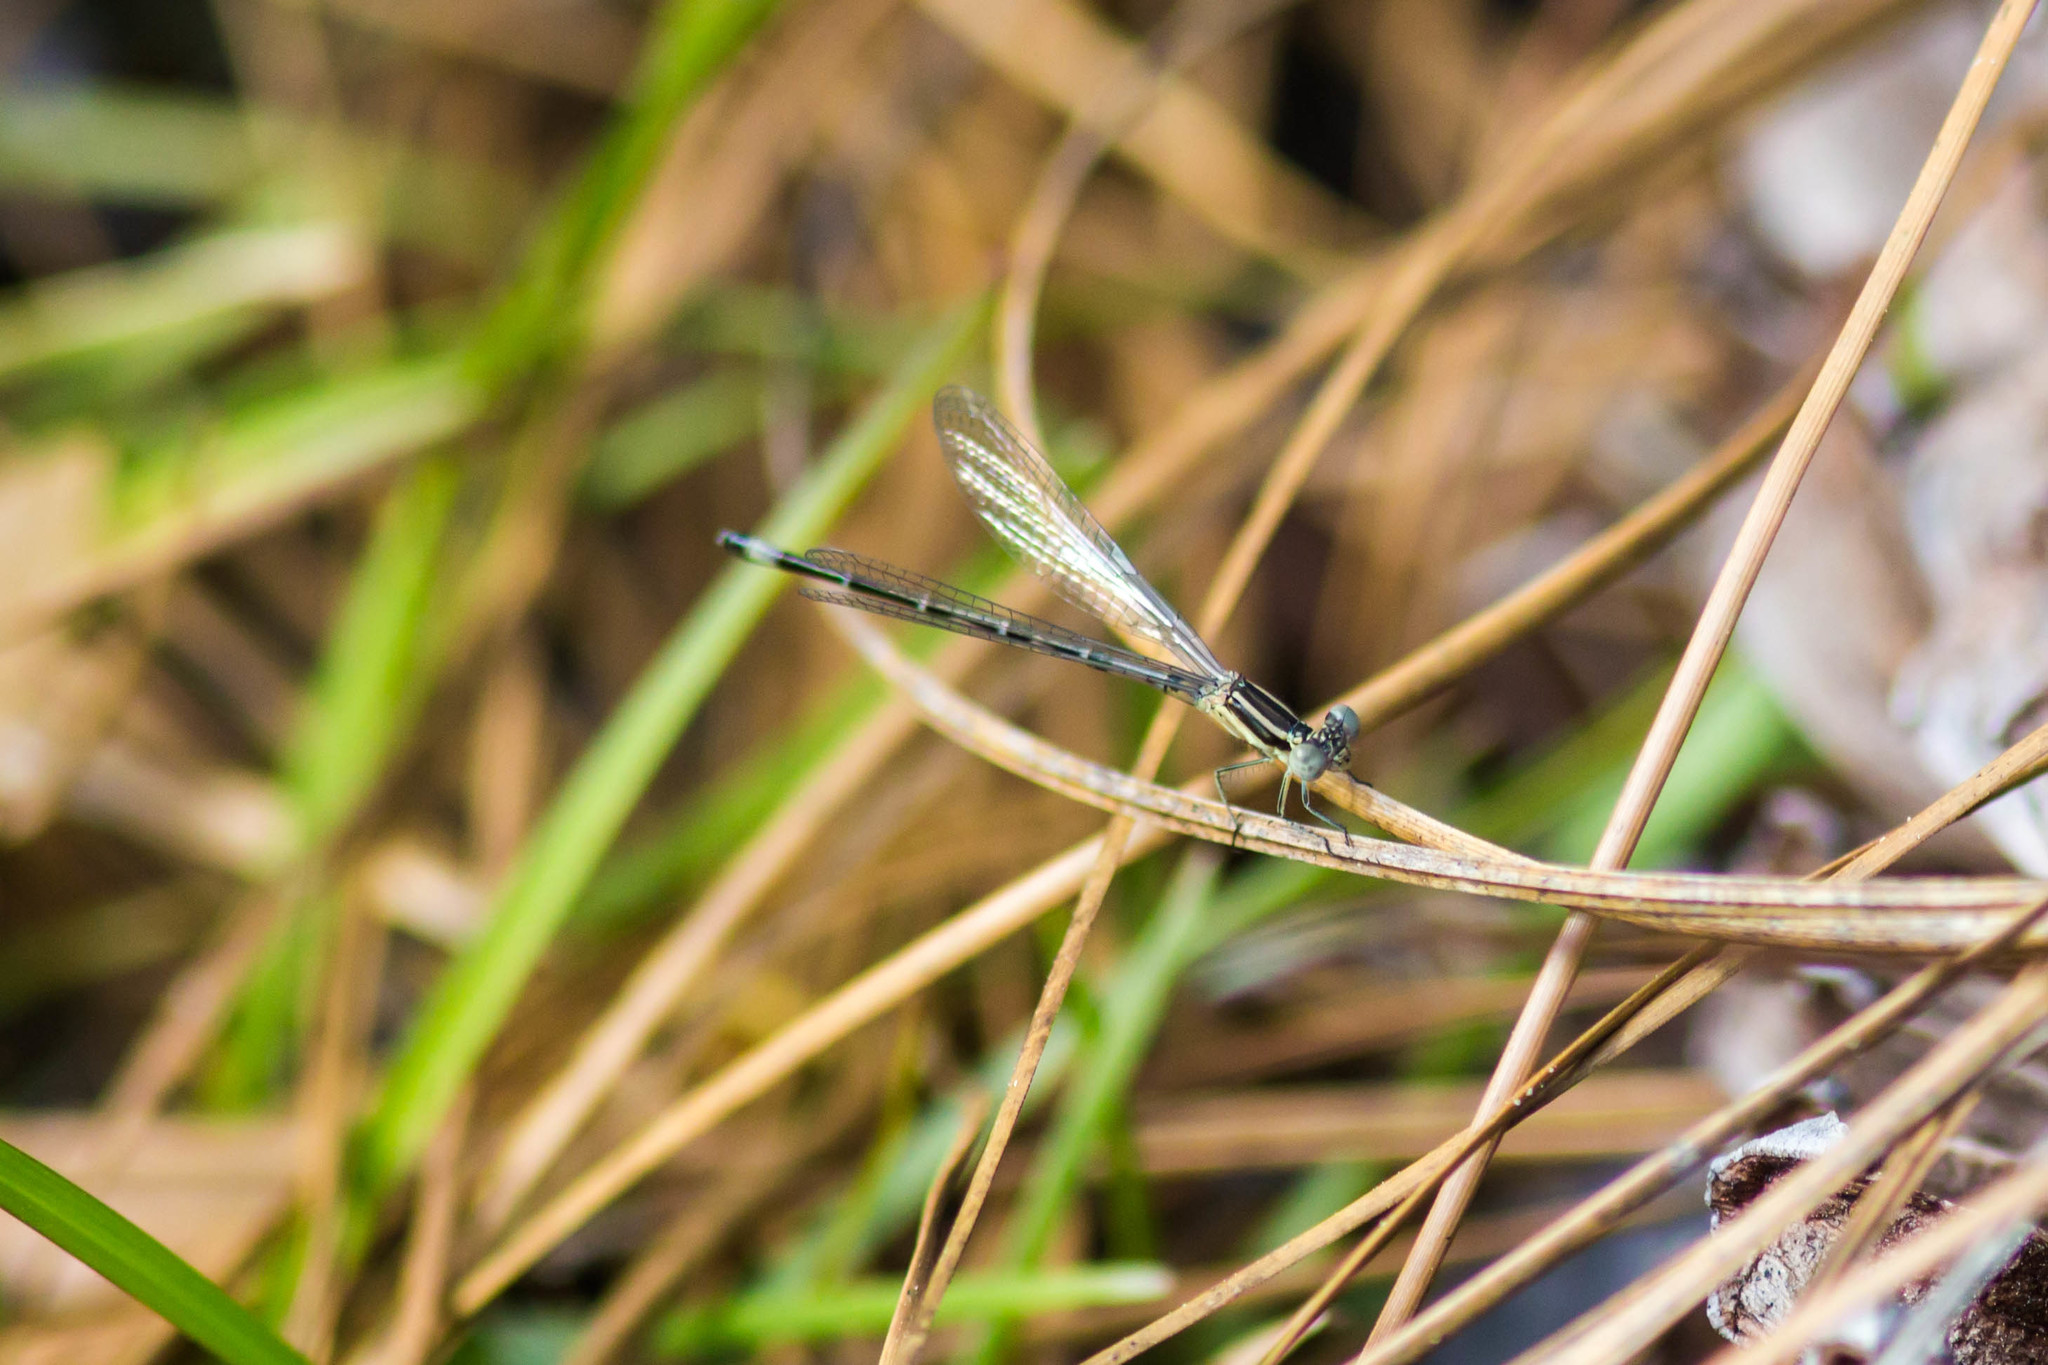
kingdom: Animalia
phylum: Arthropoda
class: Insecta
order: Odonata
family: Coenagrionidae
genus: Argia
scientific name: Argia bipunctulata
